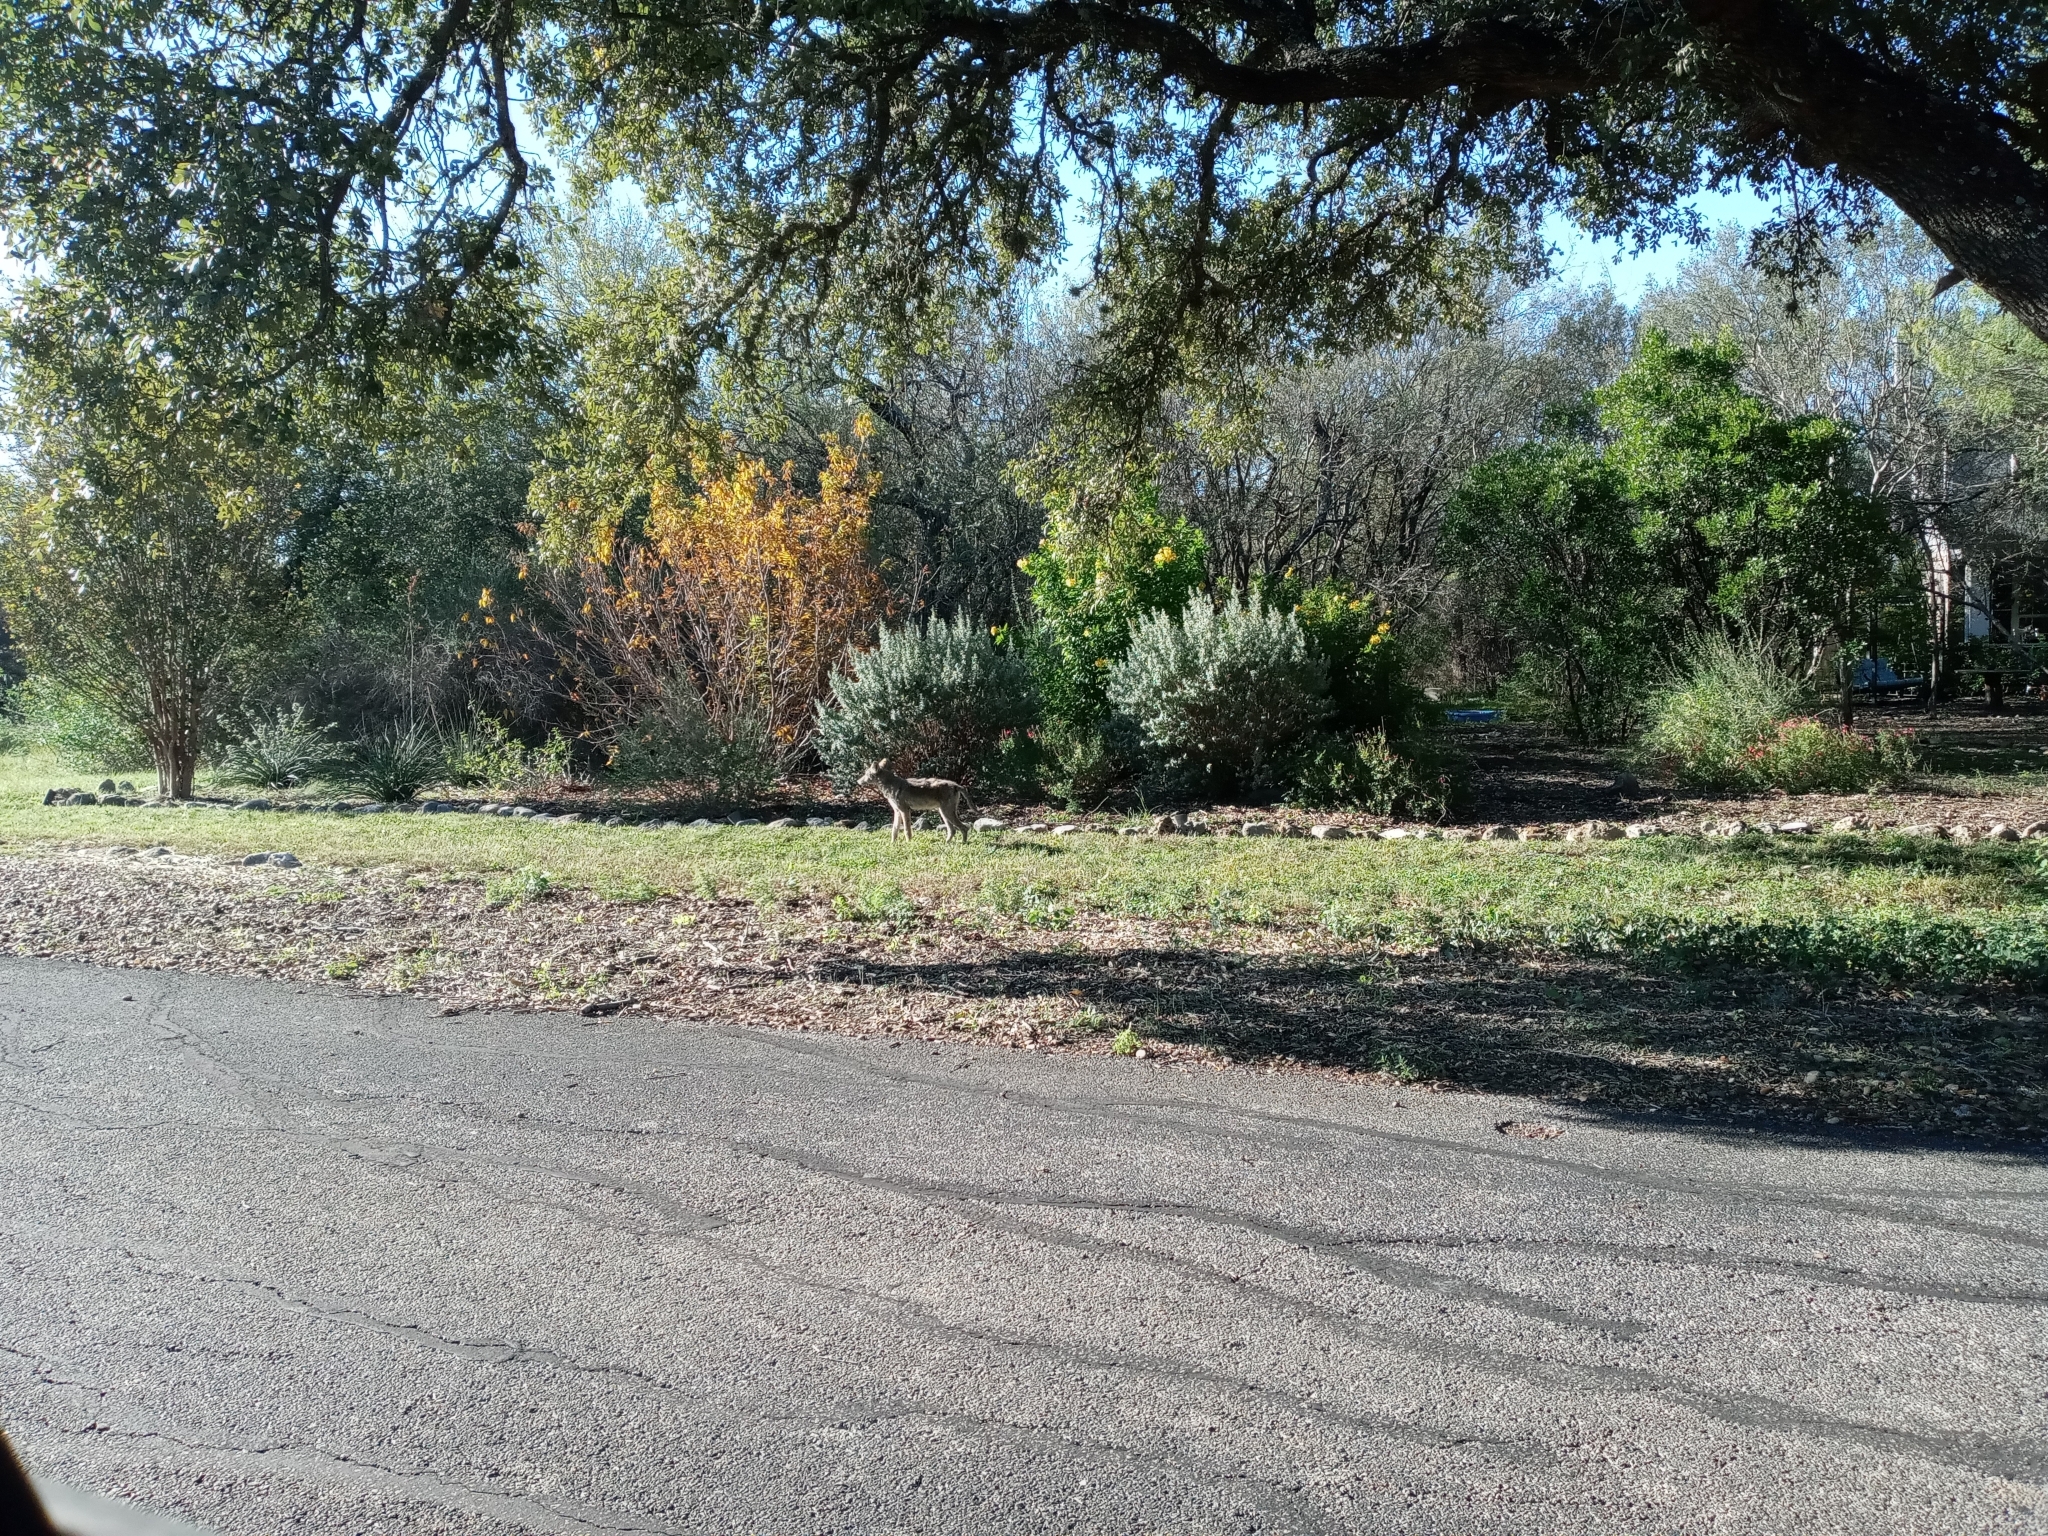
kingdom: Animalia
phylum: Chordata
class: Mammalia
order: Carnivora
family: Canidae
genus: Canis
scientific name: Canis latrans
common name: Coyote
